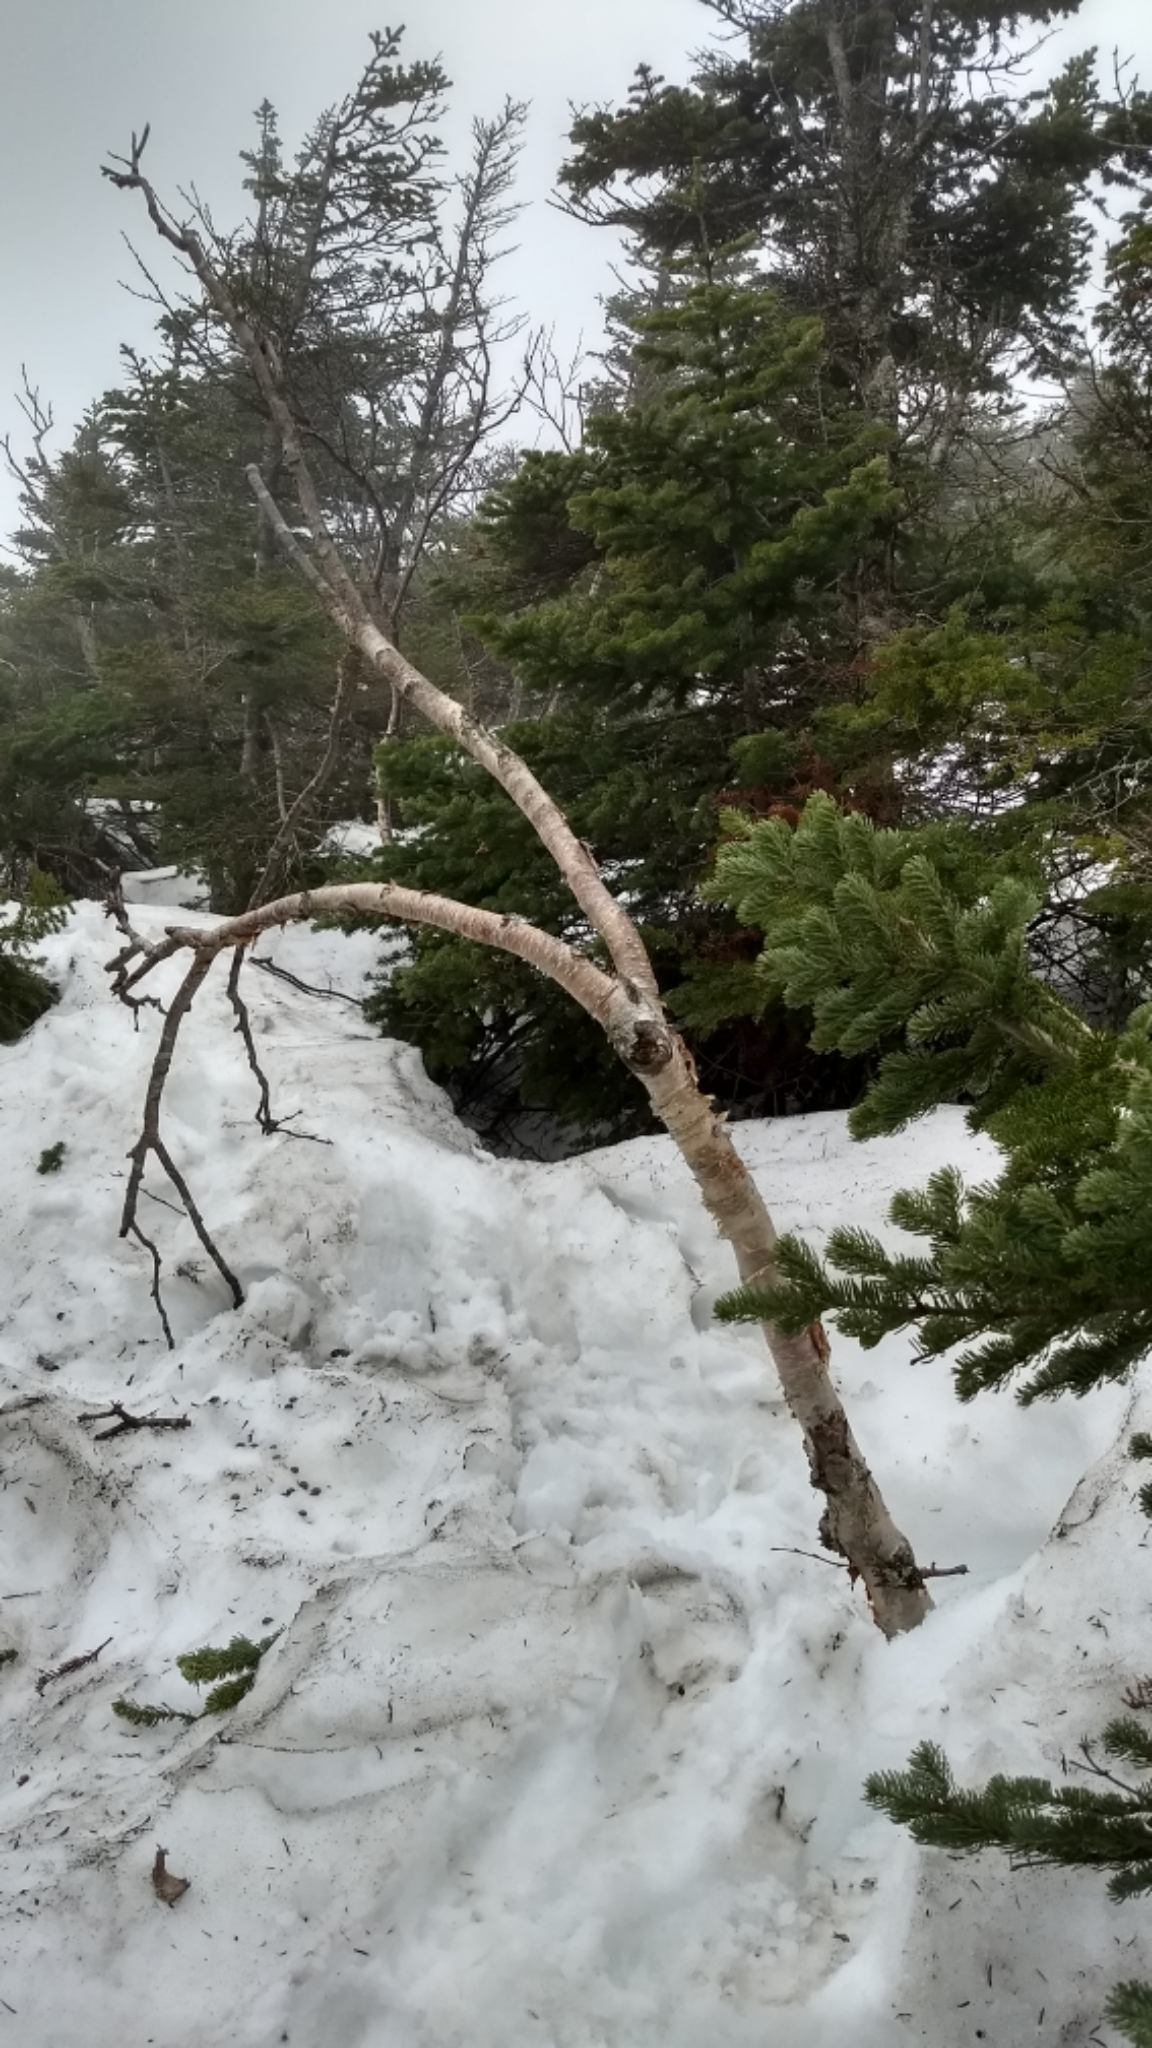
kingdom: Plantae
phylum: Tracheophyta
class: Magnoliopsida
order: Fagales
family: Betulaceae
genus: Betula
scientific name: Betula cordifolia
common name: Mountain white birch
